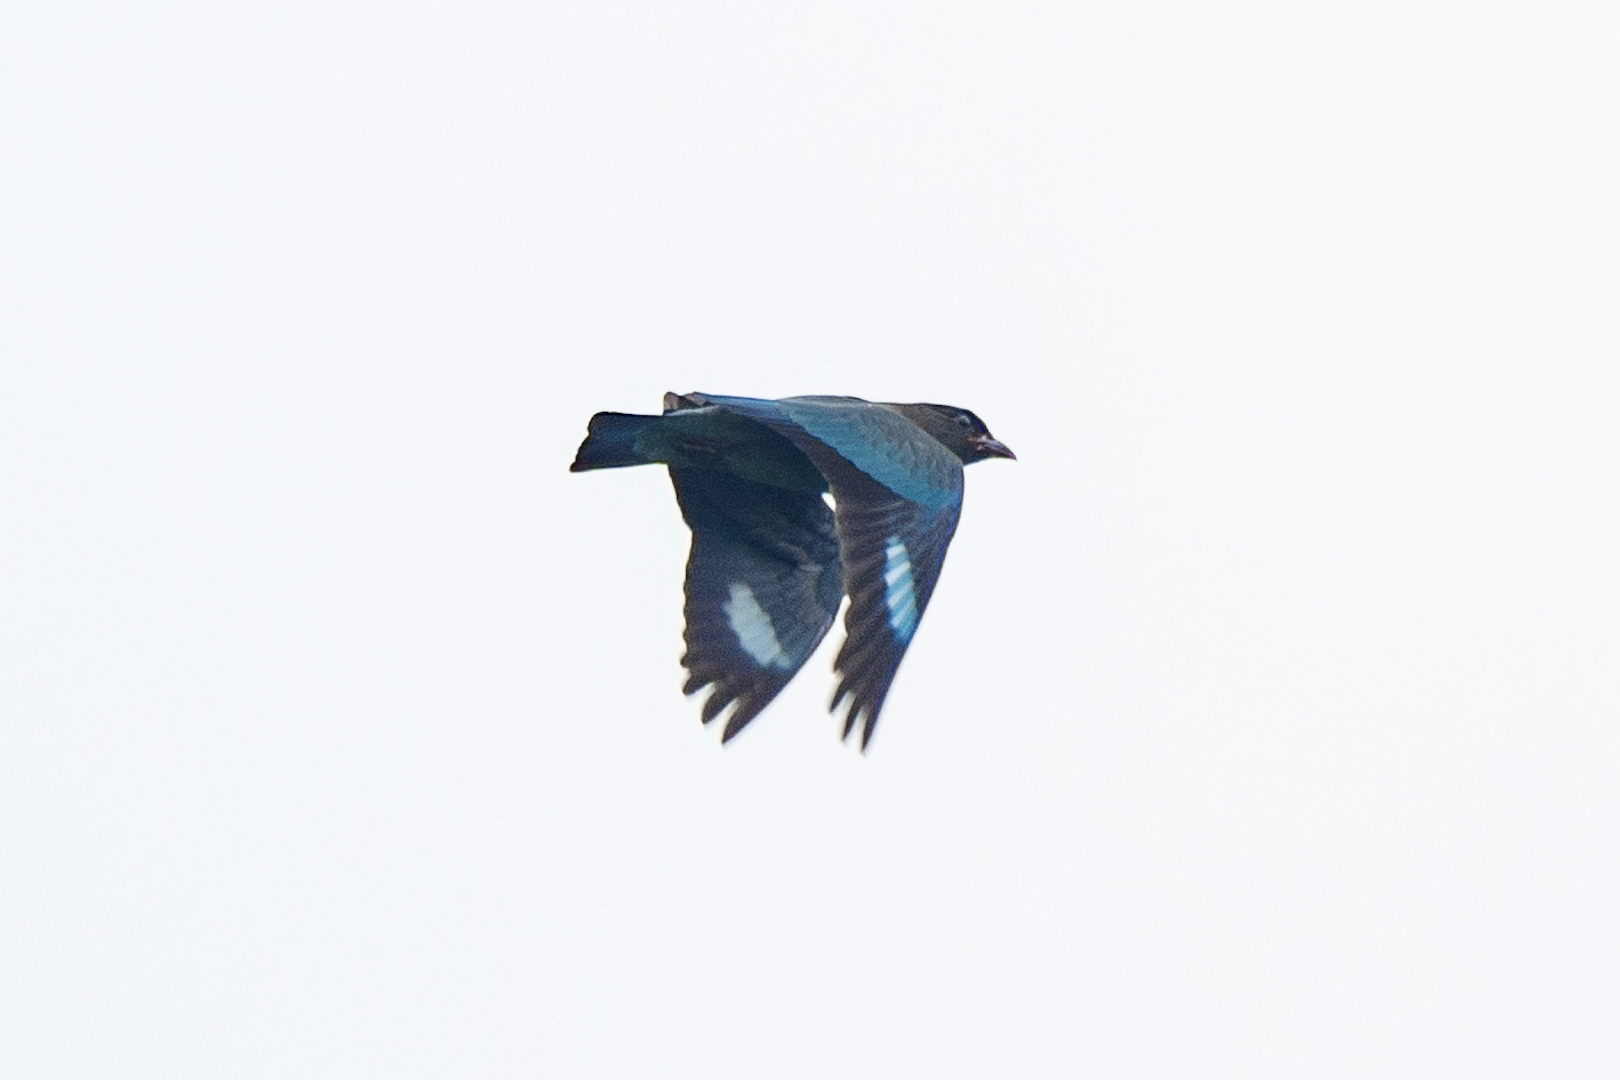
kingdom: Animalia
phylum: Chordata
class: Aves
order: Coraciiformes
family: Coraciidae
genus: Eurystomus
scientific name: Eurystomus orientalis
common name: Oriental dollarbird
